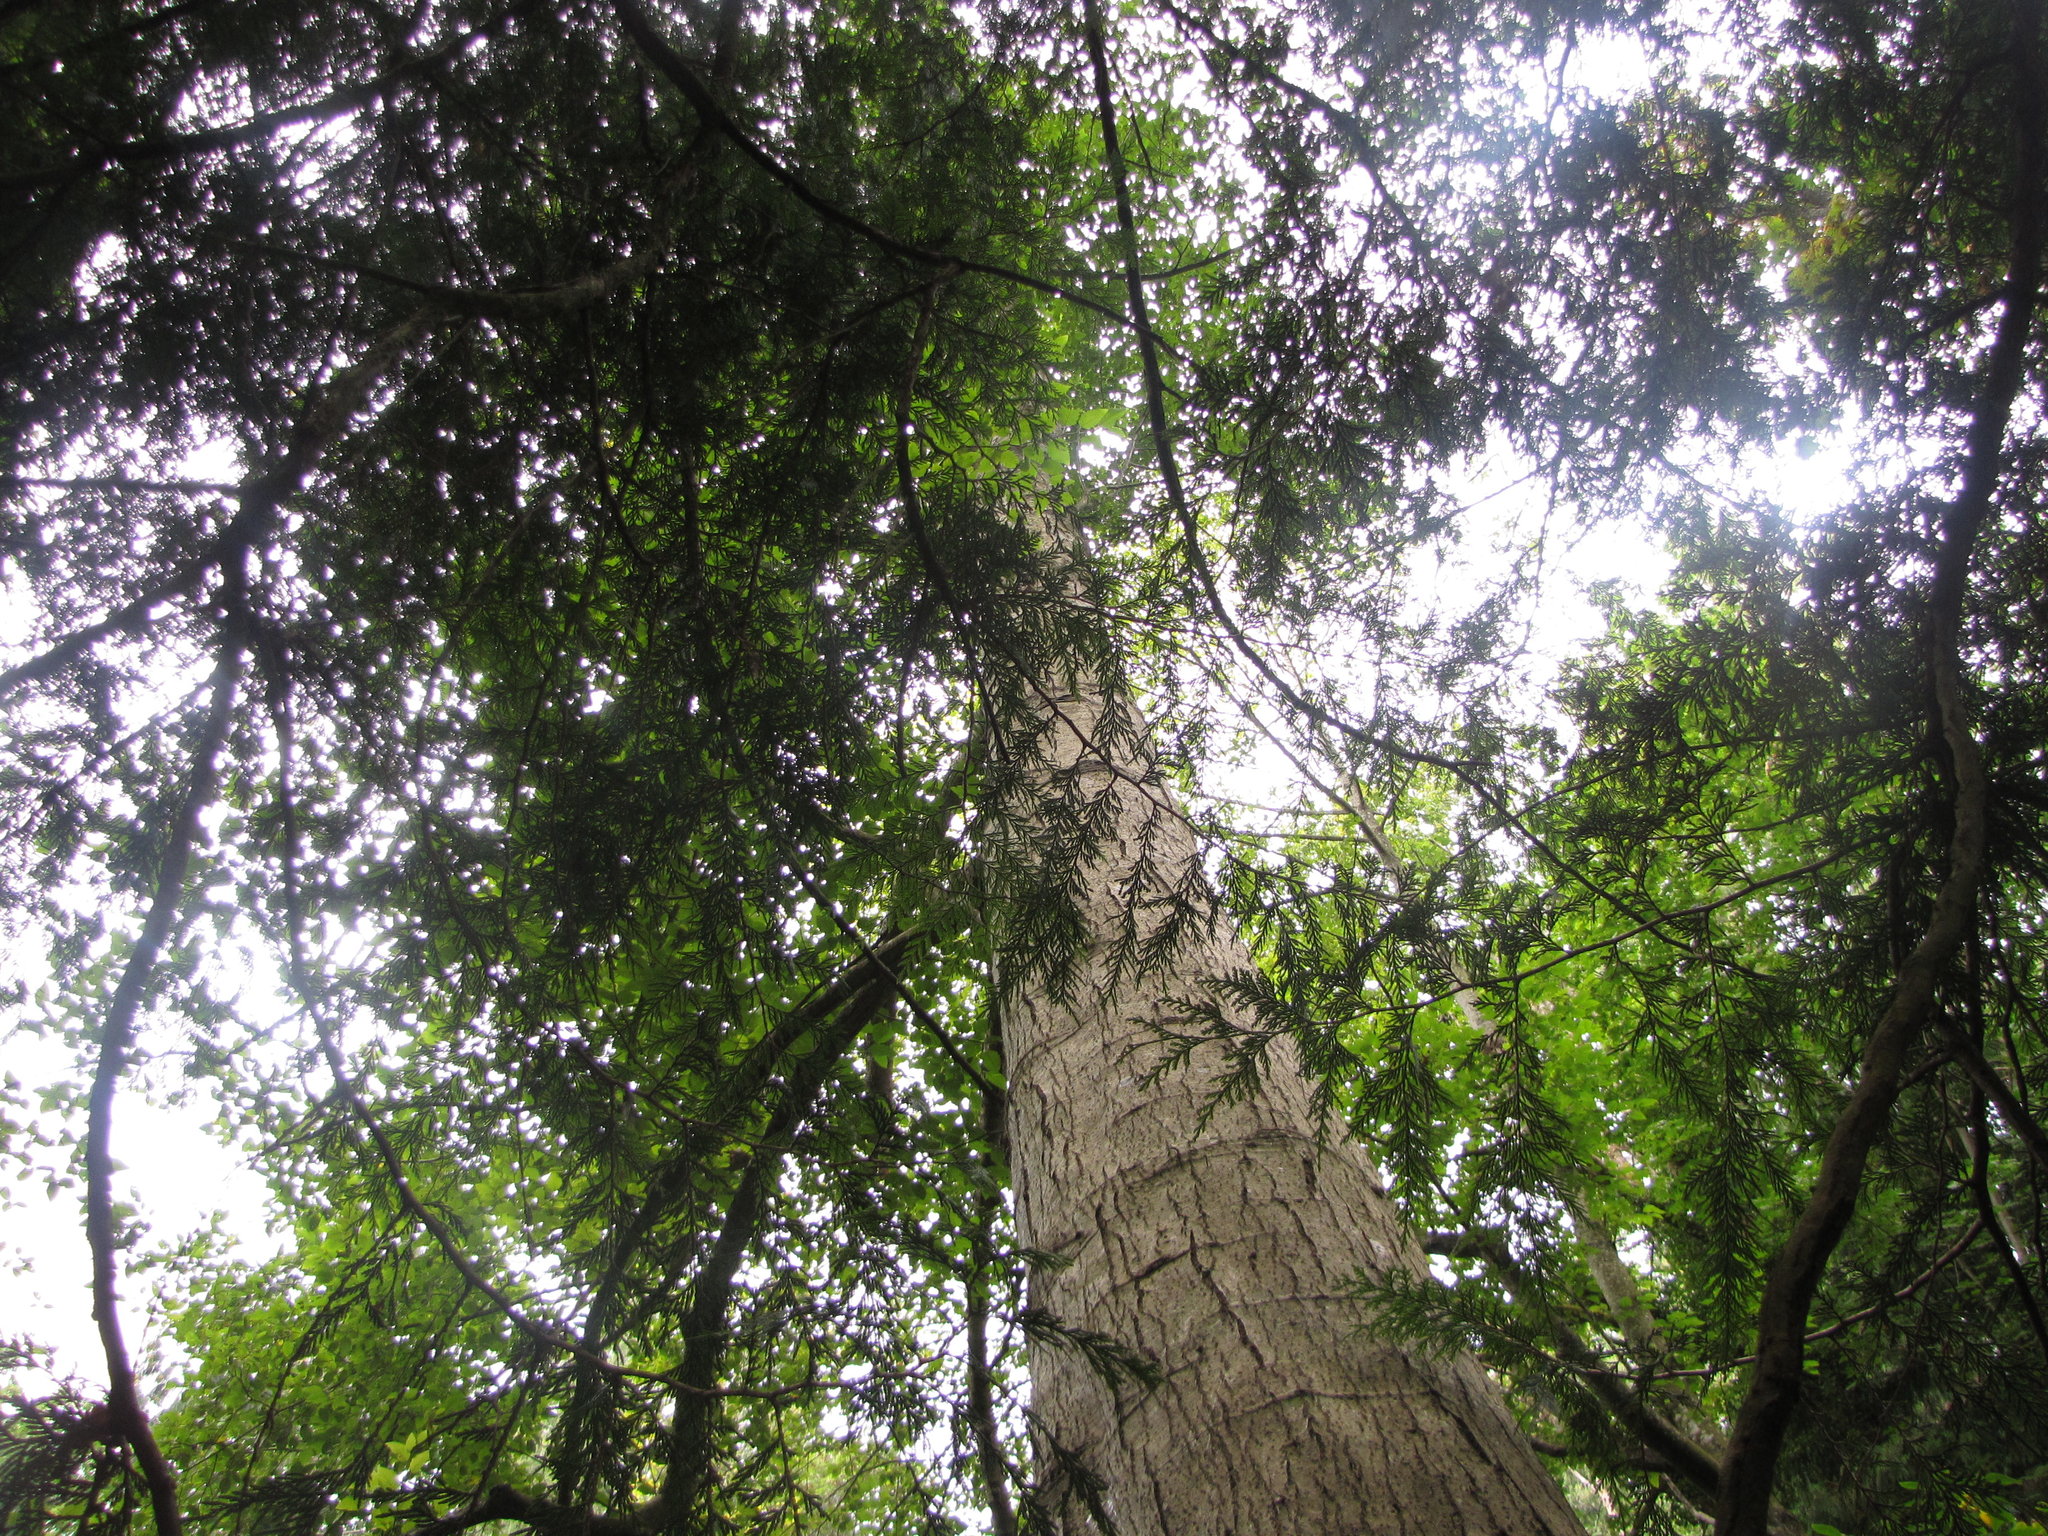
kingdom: Plantae
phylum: Tracheophyta
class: Pinopsida
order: Pinales
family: Cupressaceae
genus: Thuja
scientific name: Thuja plicata
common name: Western red-cedar
